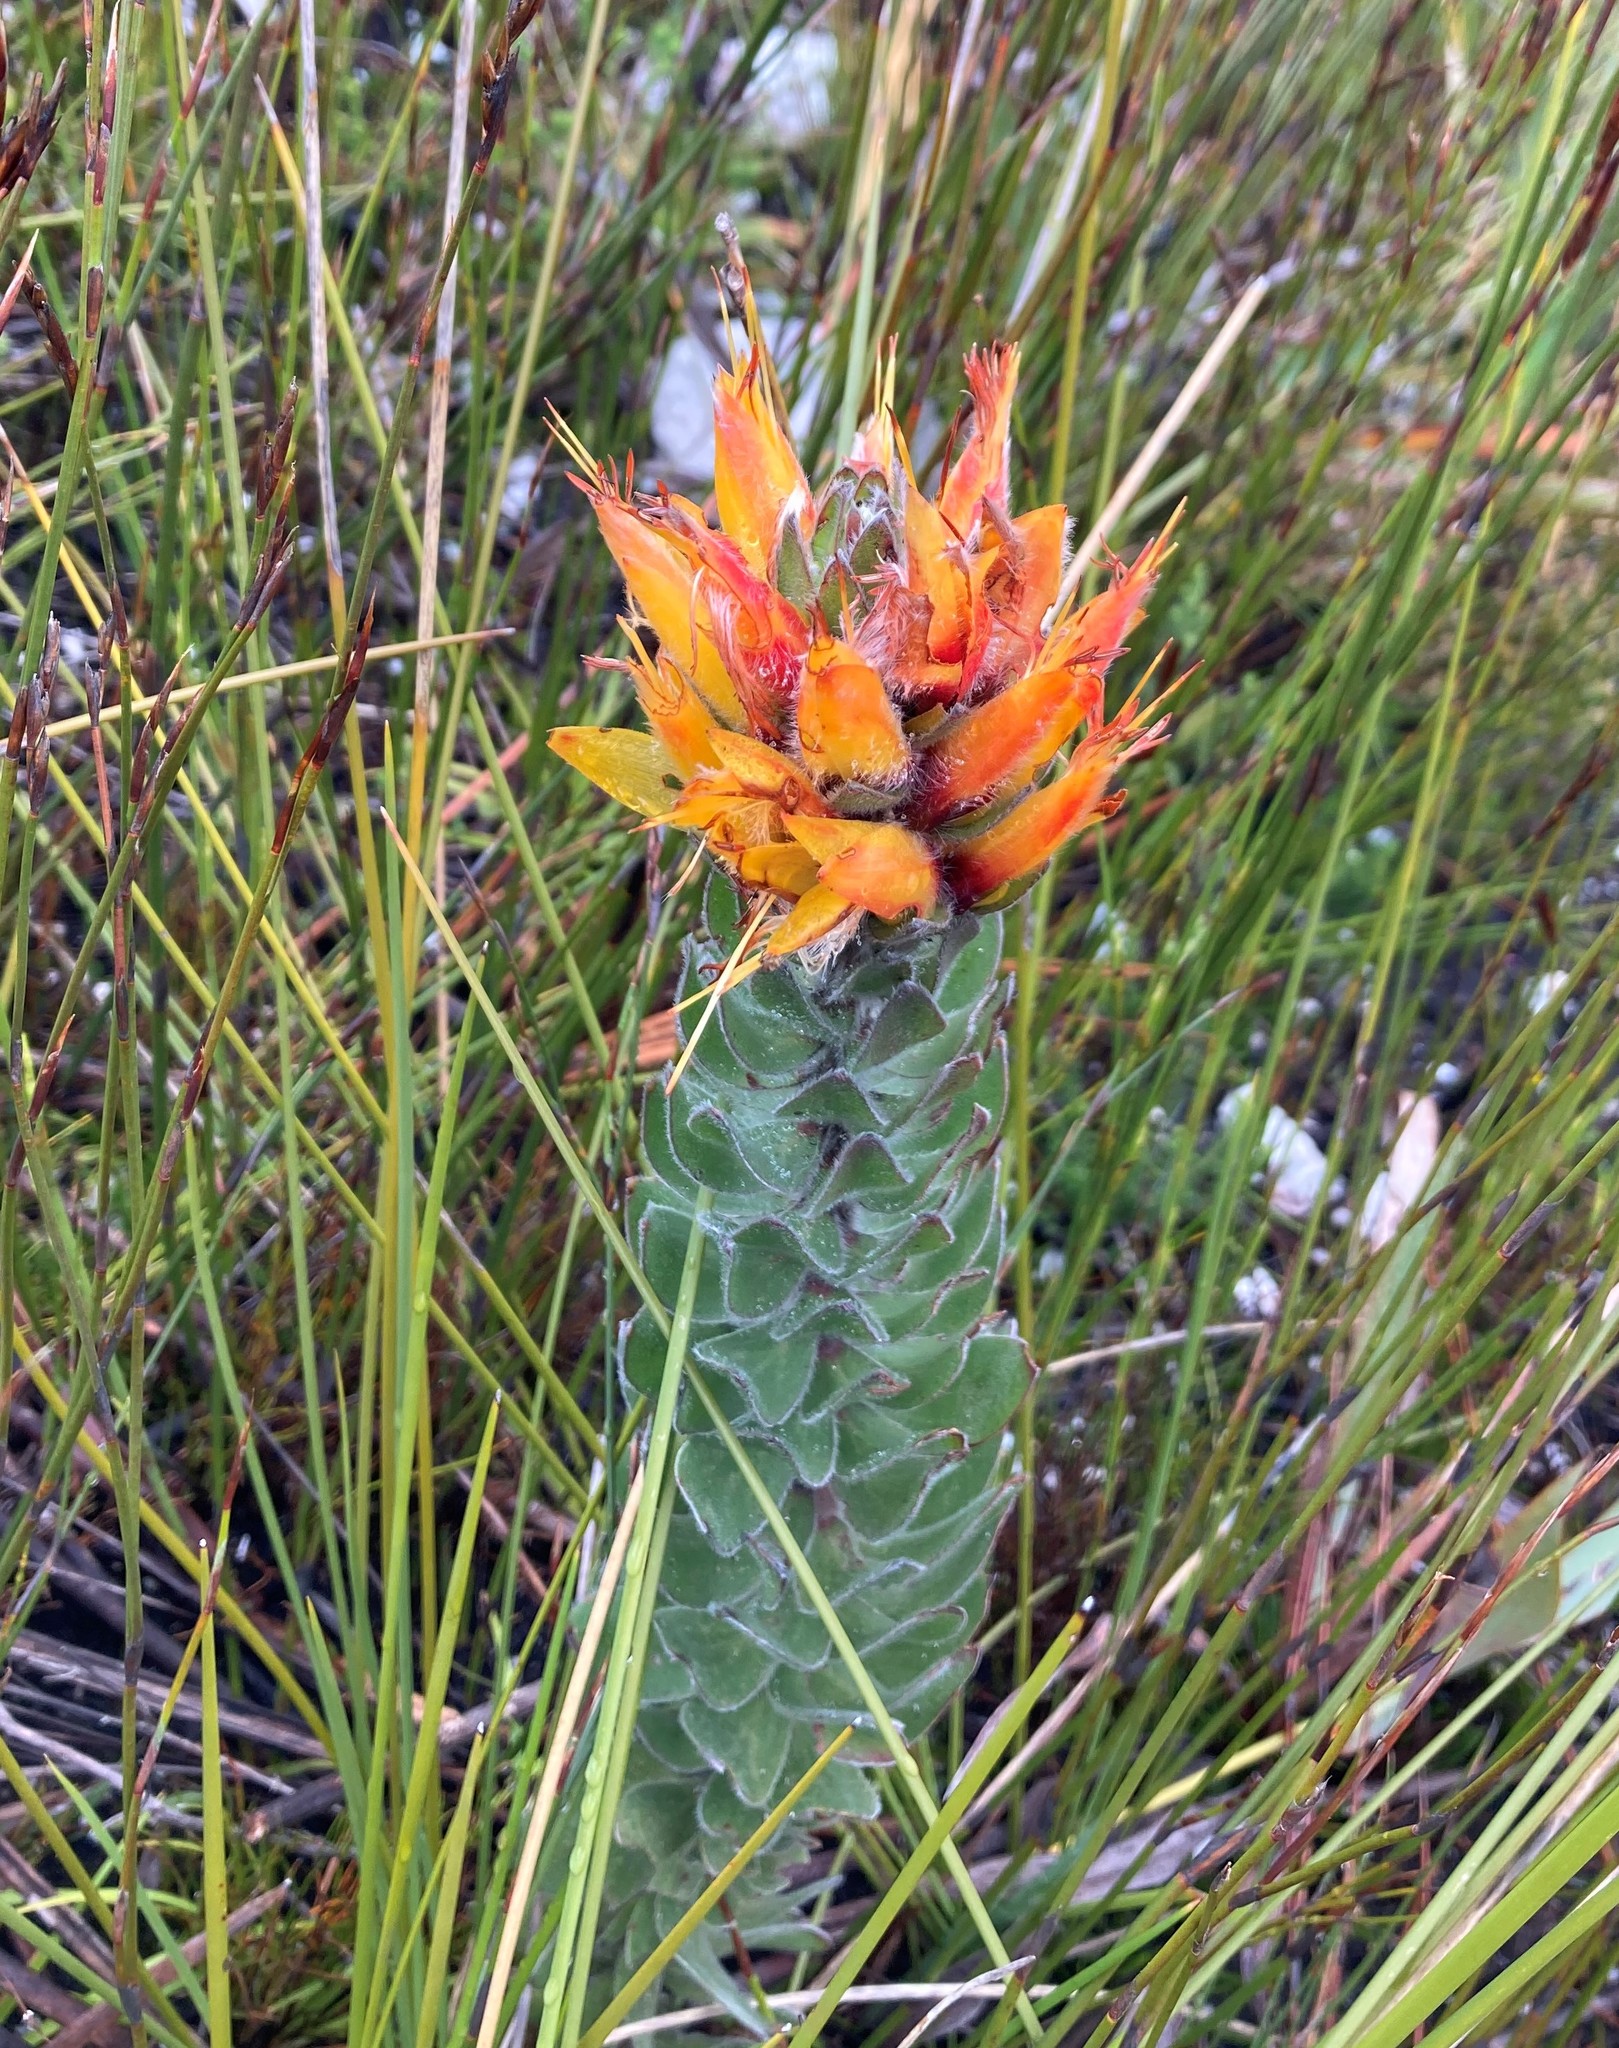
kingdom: Plantae
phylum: Tracheophyta
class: Magnoliopsida
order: Proteales
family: Proteaceae
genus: Mimetes
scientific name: Mimetes pauciflora
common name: Three-flowered pagoda
